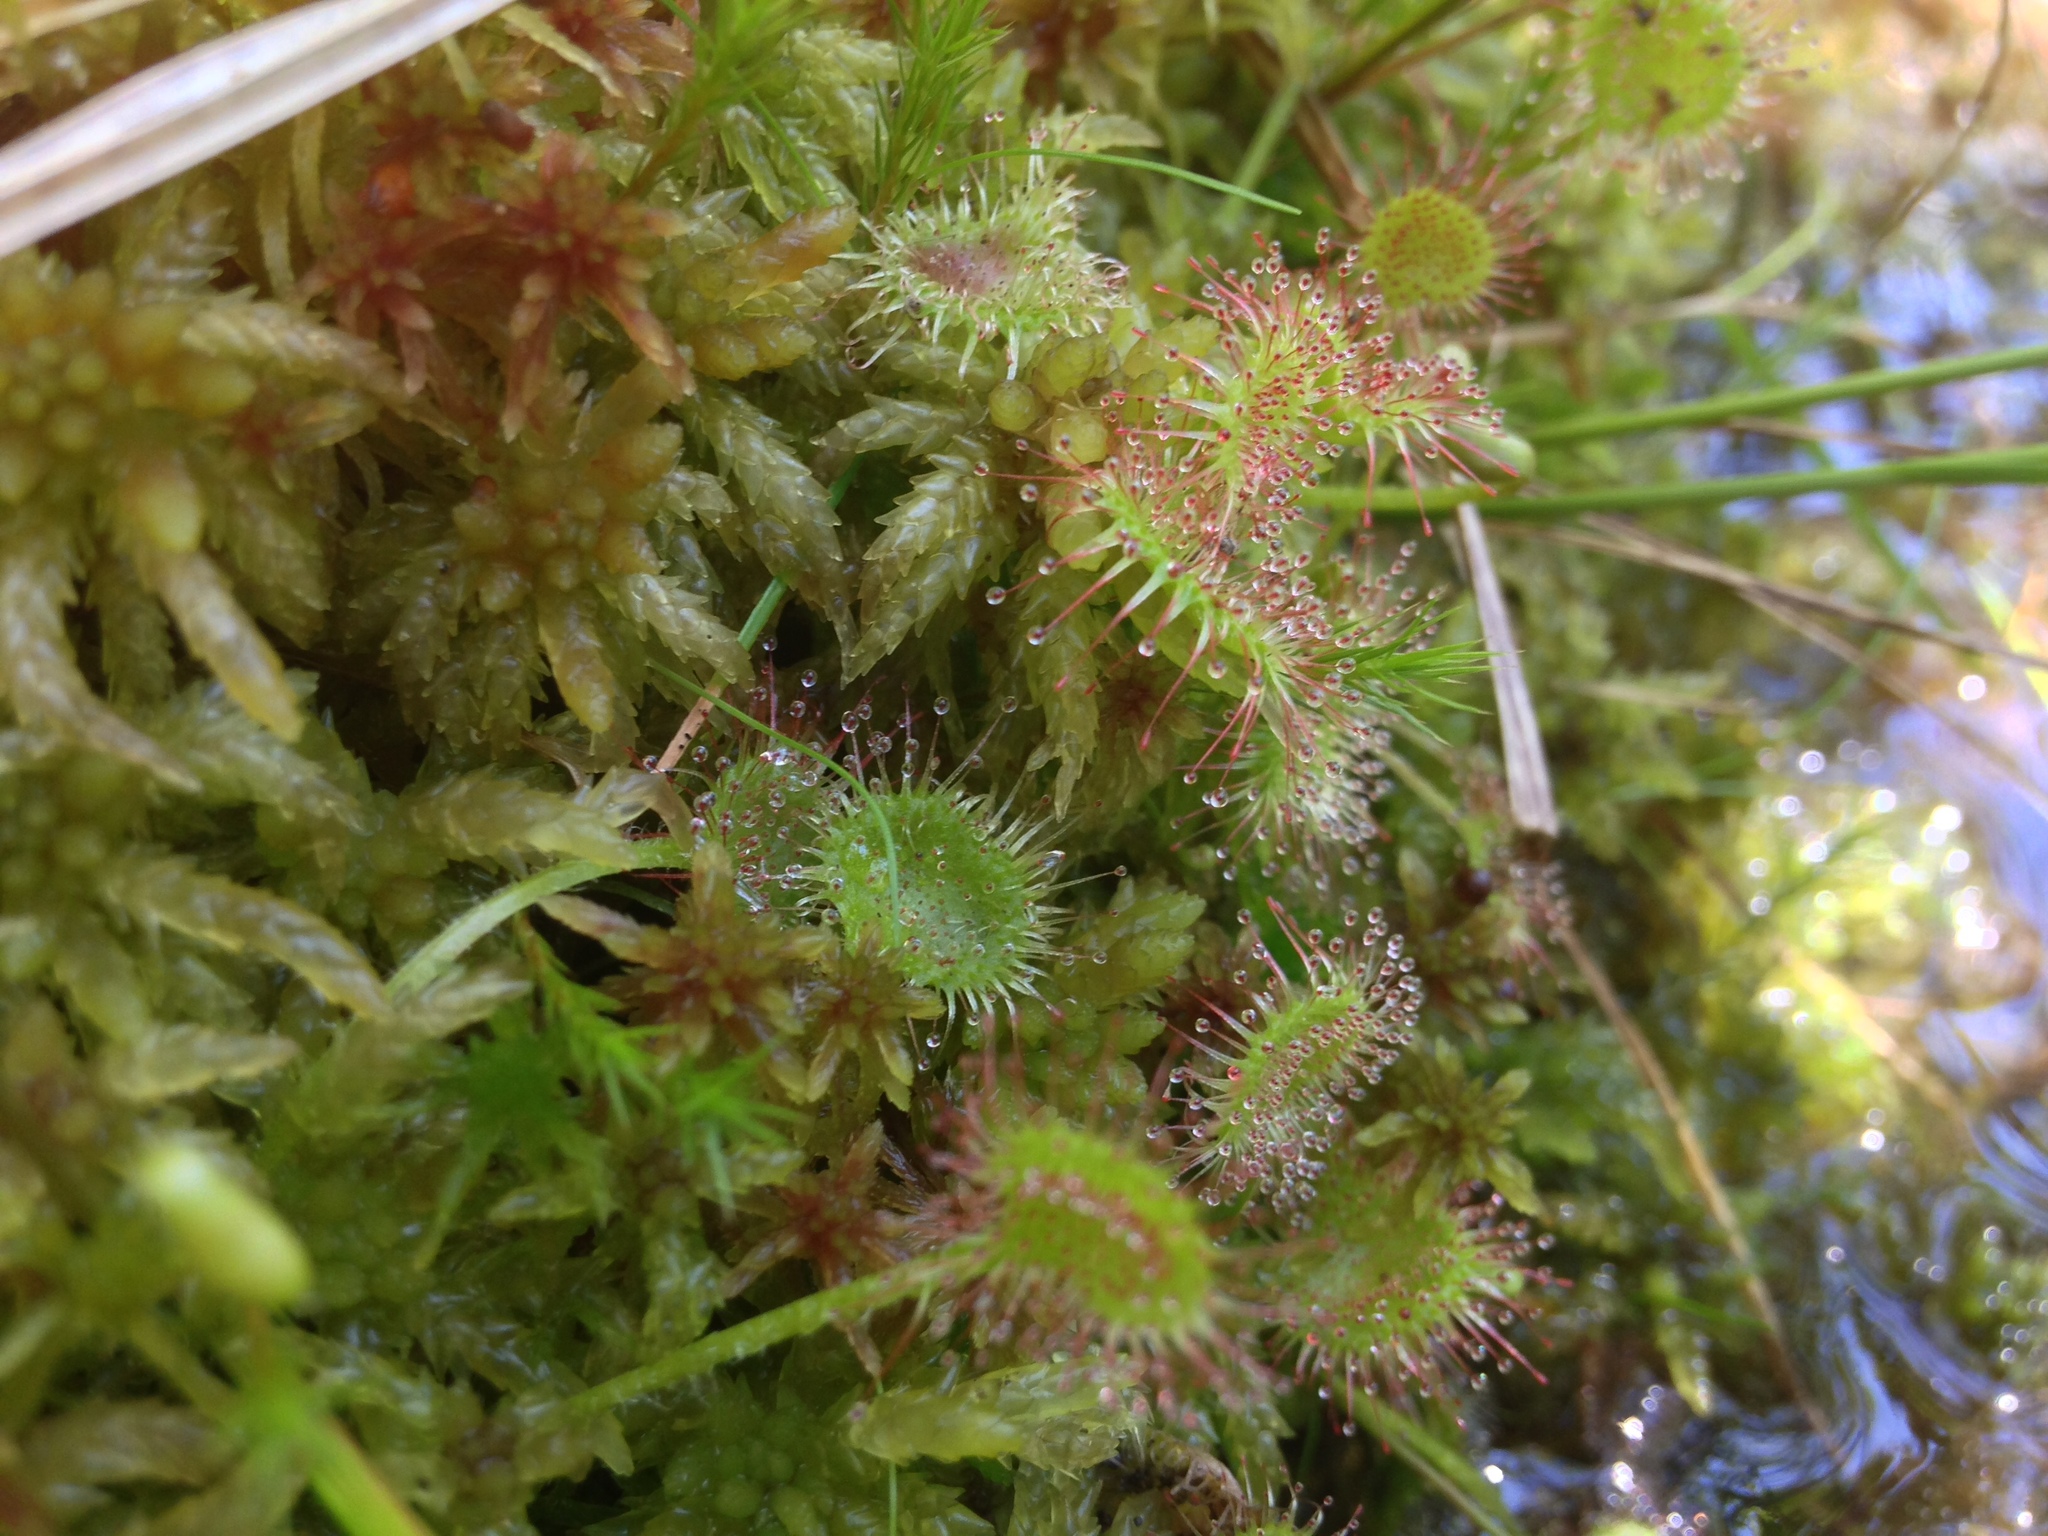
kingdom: Plantae
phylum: Tracheophyta
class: Magnoliopsida
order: Caryophyllales
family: Droseraceae
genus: Drosera
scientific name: Drosera rotundifolia
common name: Round-leaved sundew
